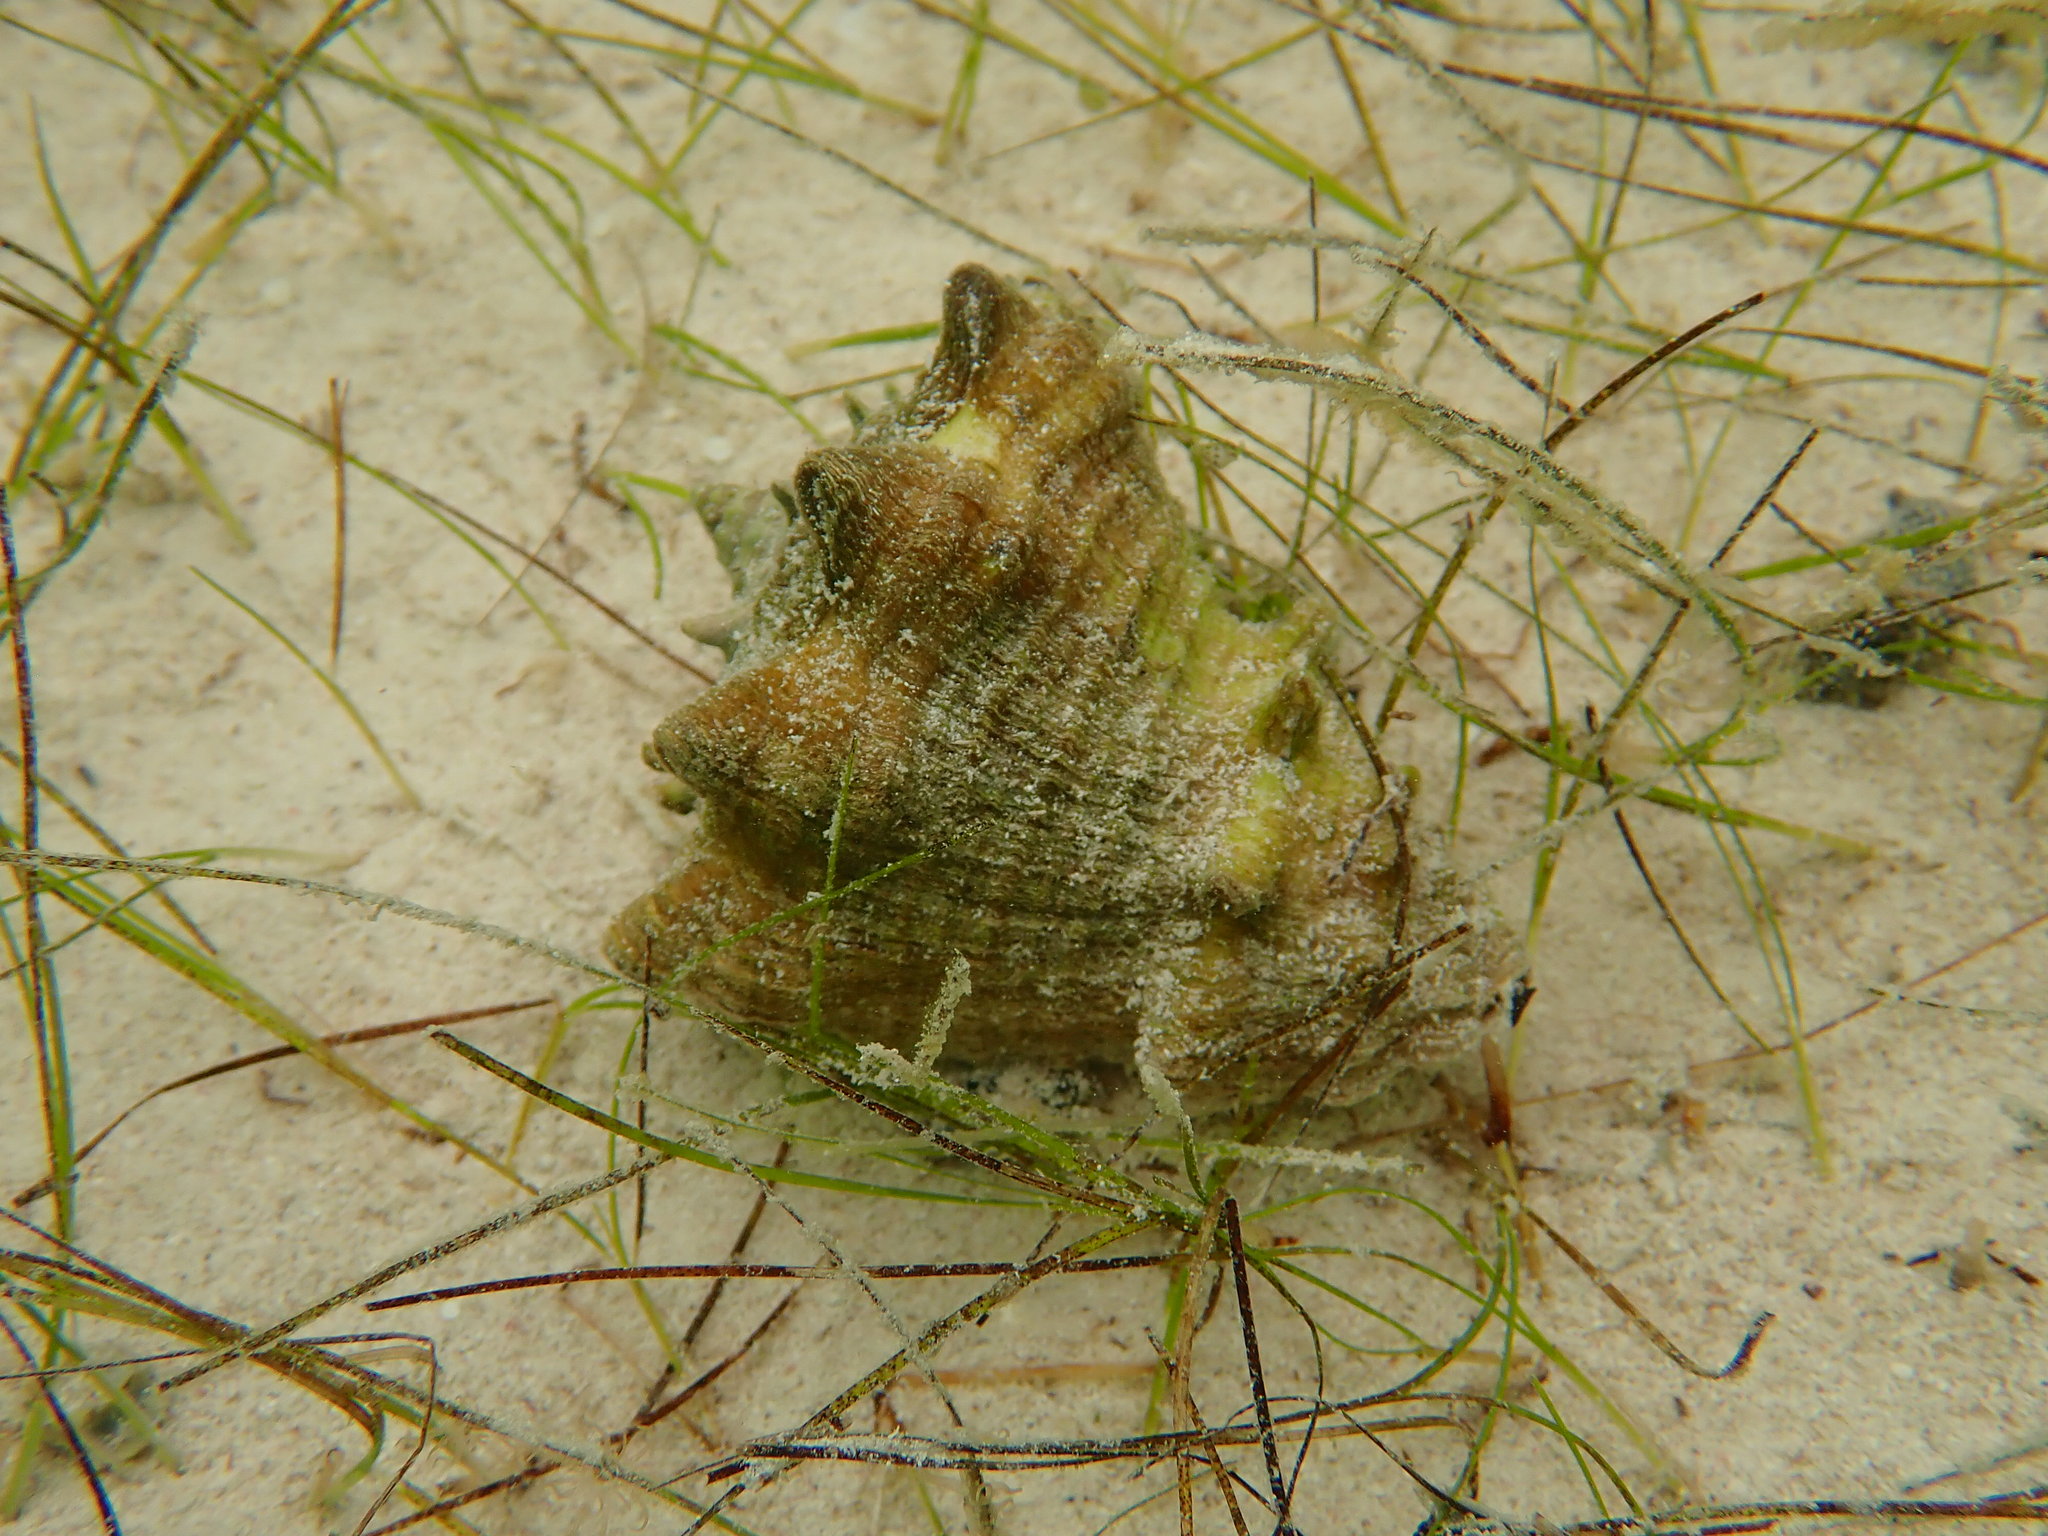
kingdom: Animalia
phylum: Mollusca
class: Gastropoda
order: Neogastropoda
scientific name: Neogastropoda
